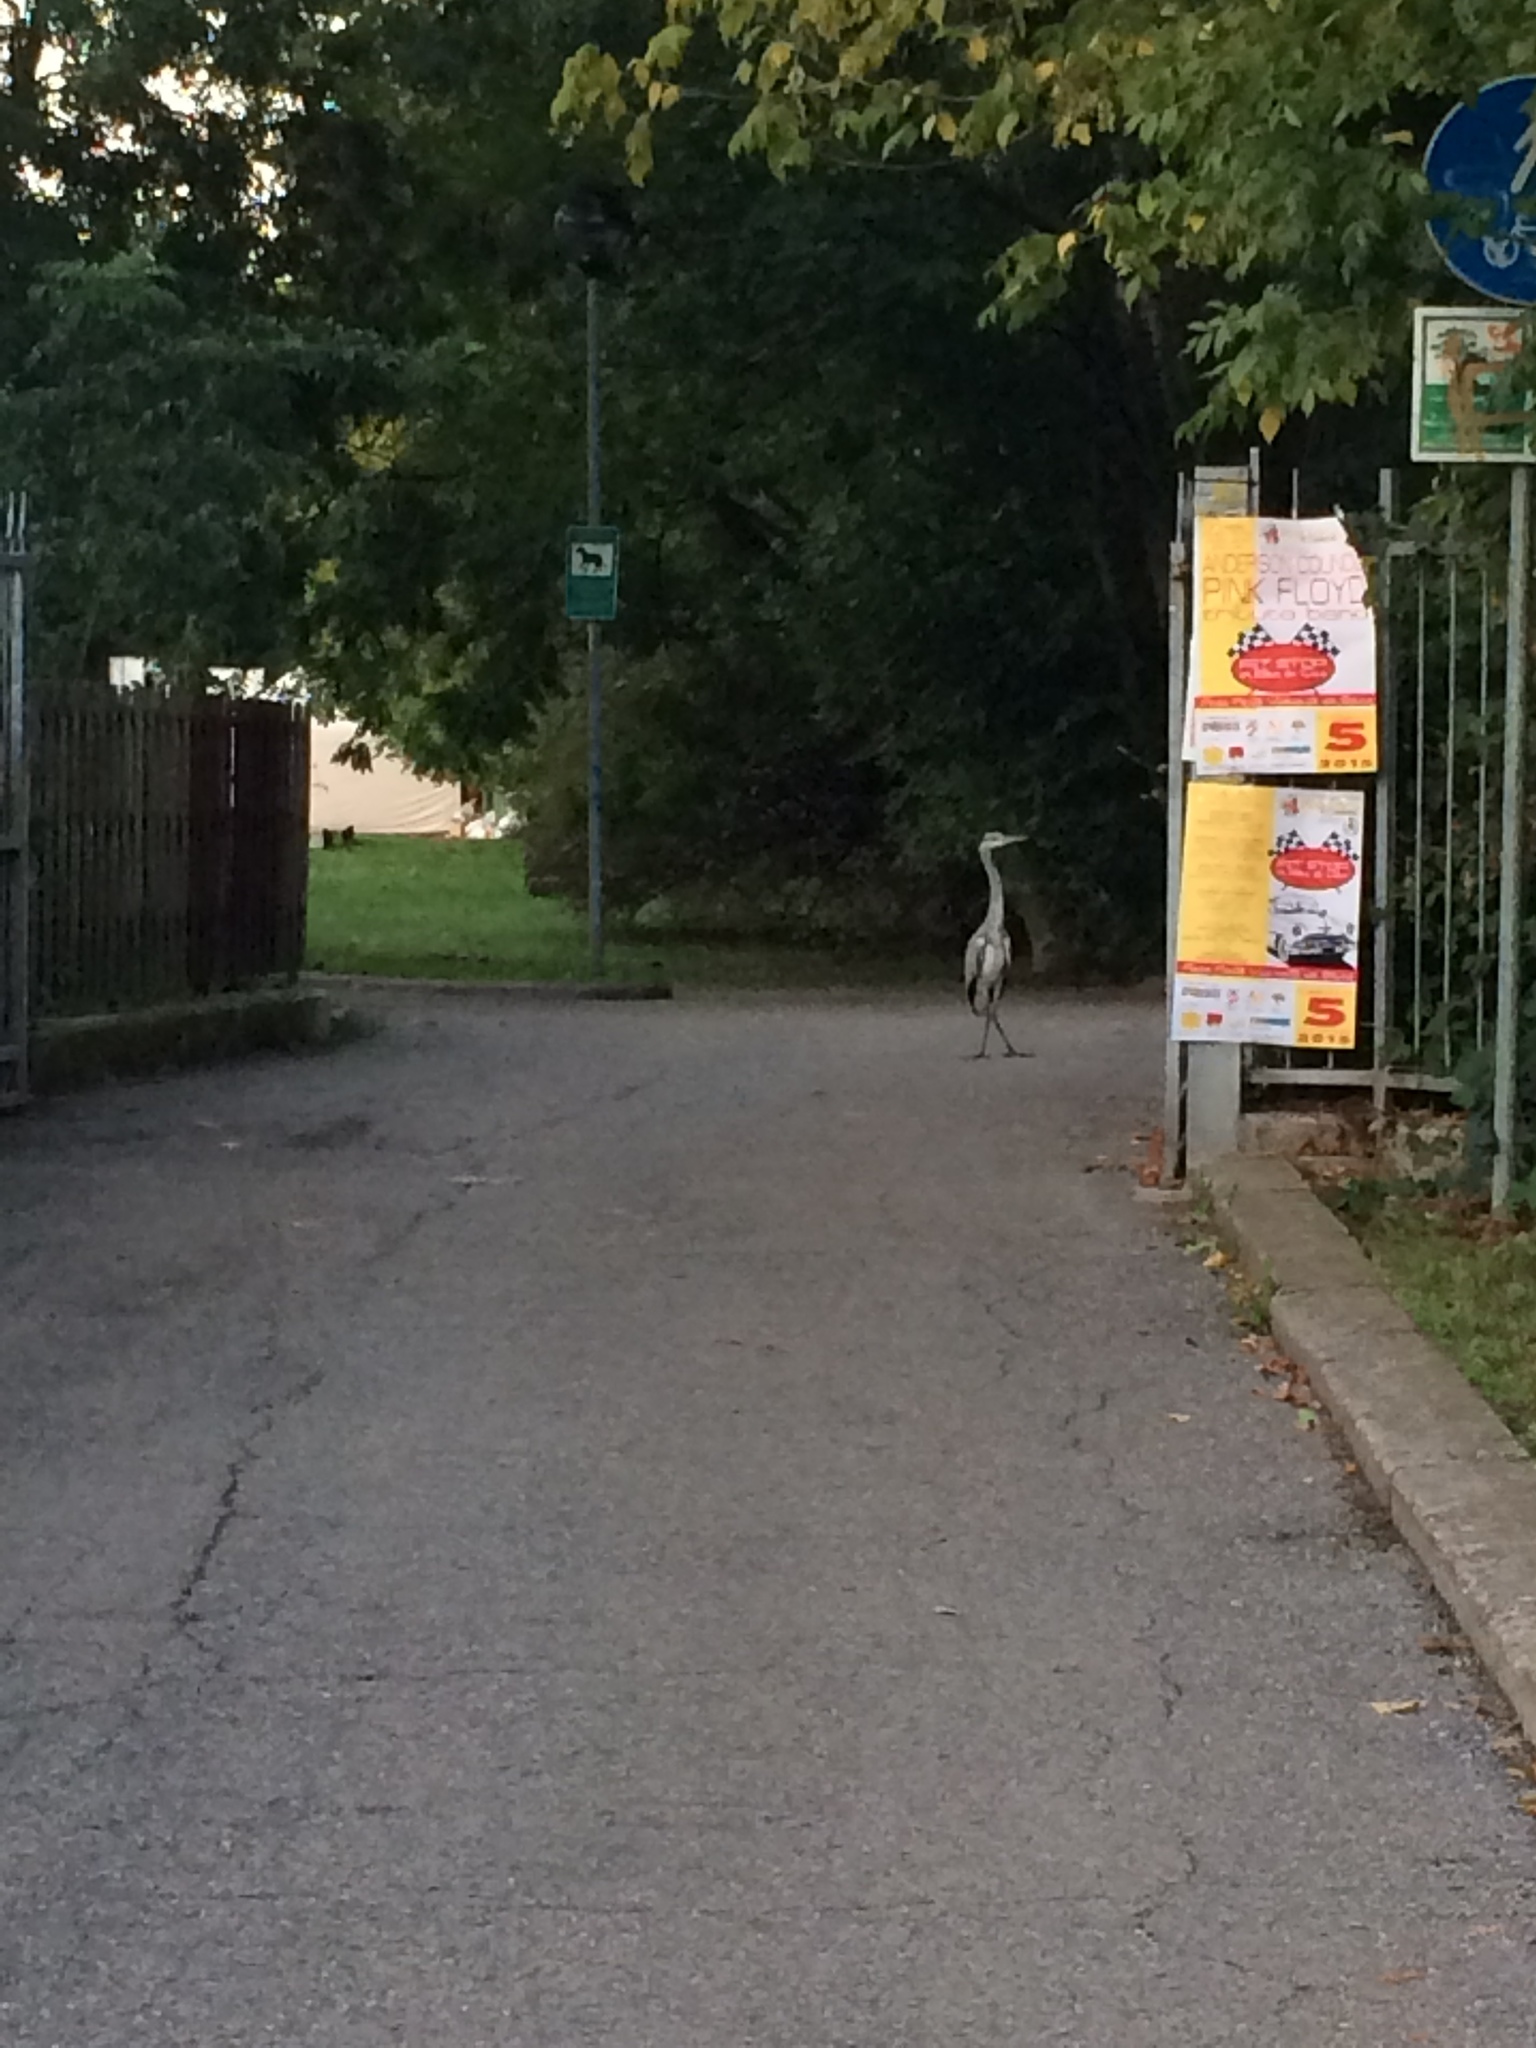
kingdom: Animalia
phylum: Chordata
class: Aves
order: Pelecaniformes
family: Ardeidae
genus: Ardea
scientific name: Ardea cinerea
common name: Grey heron
